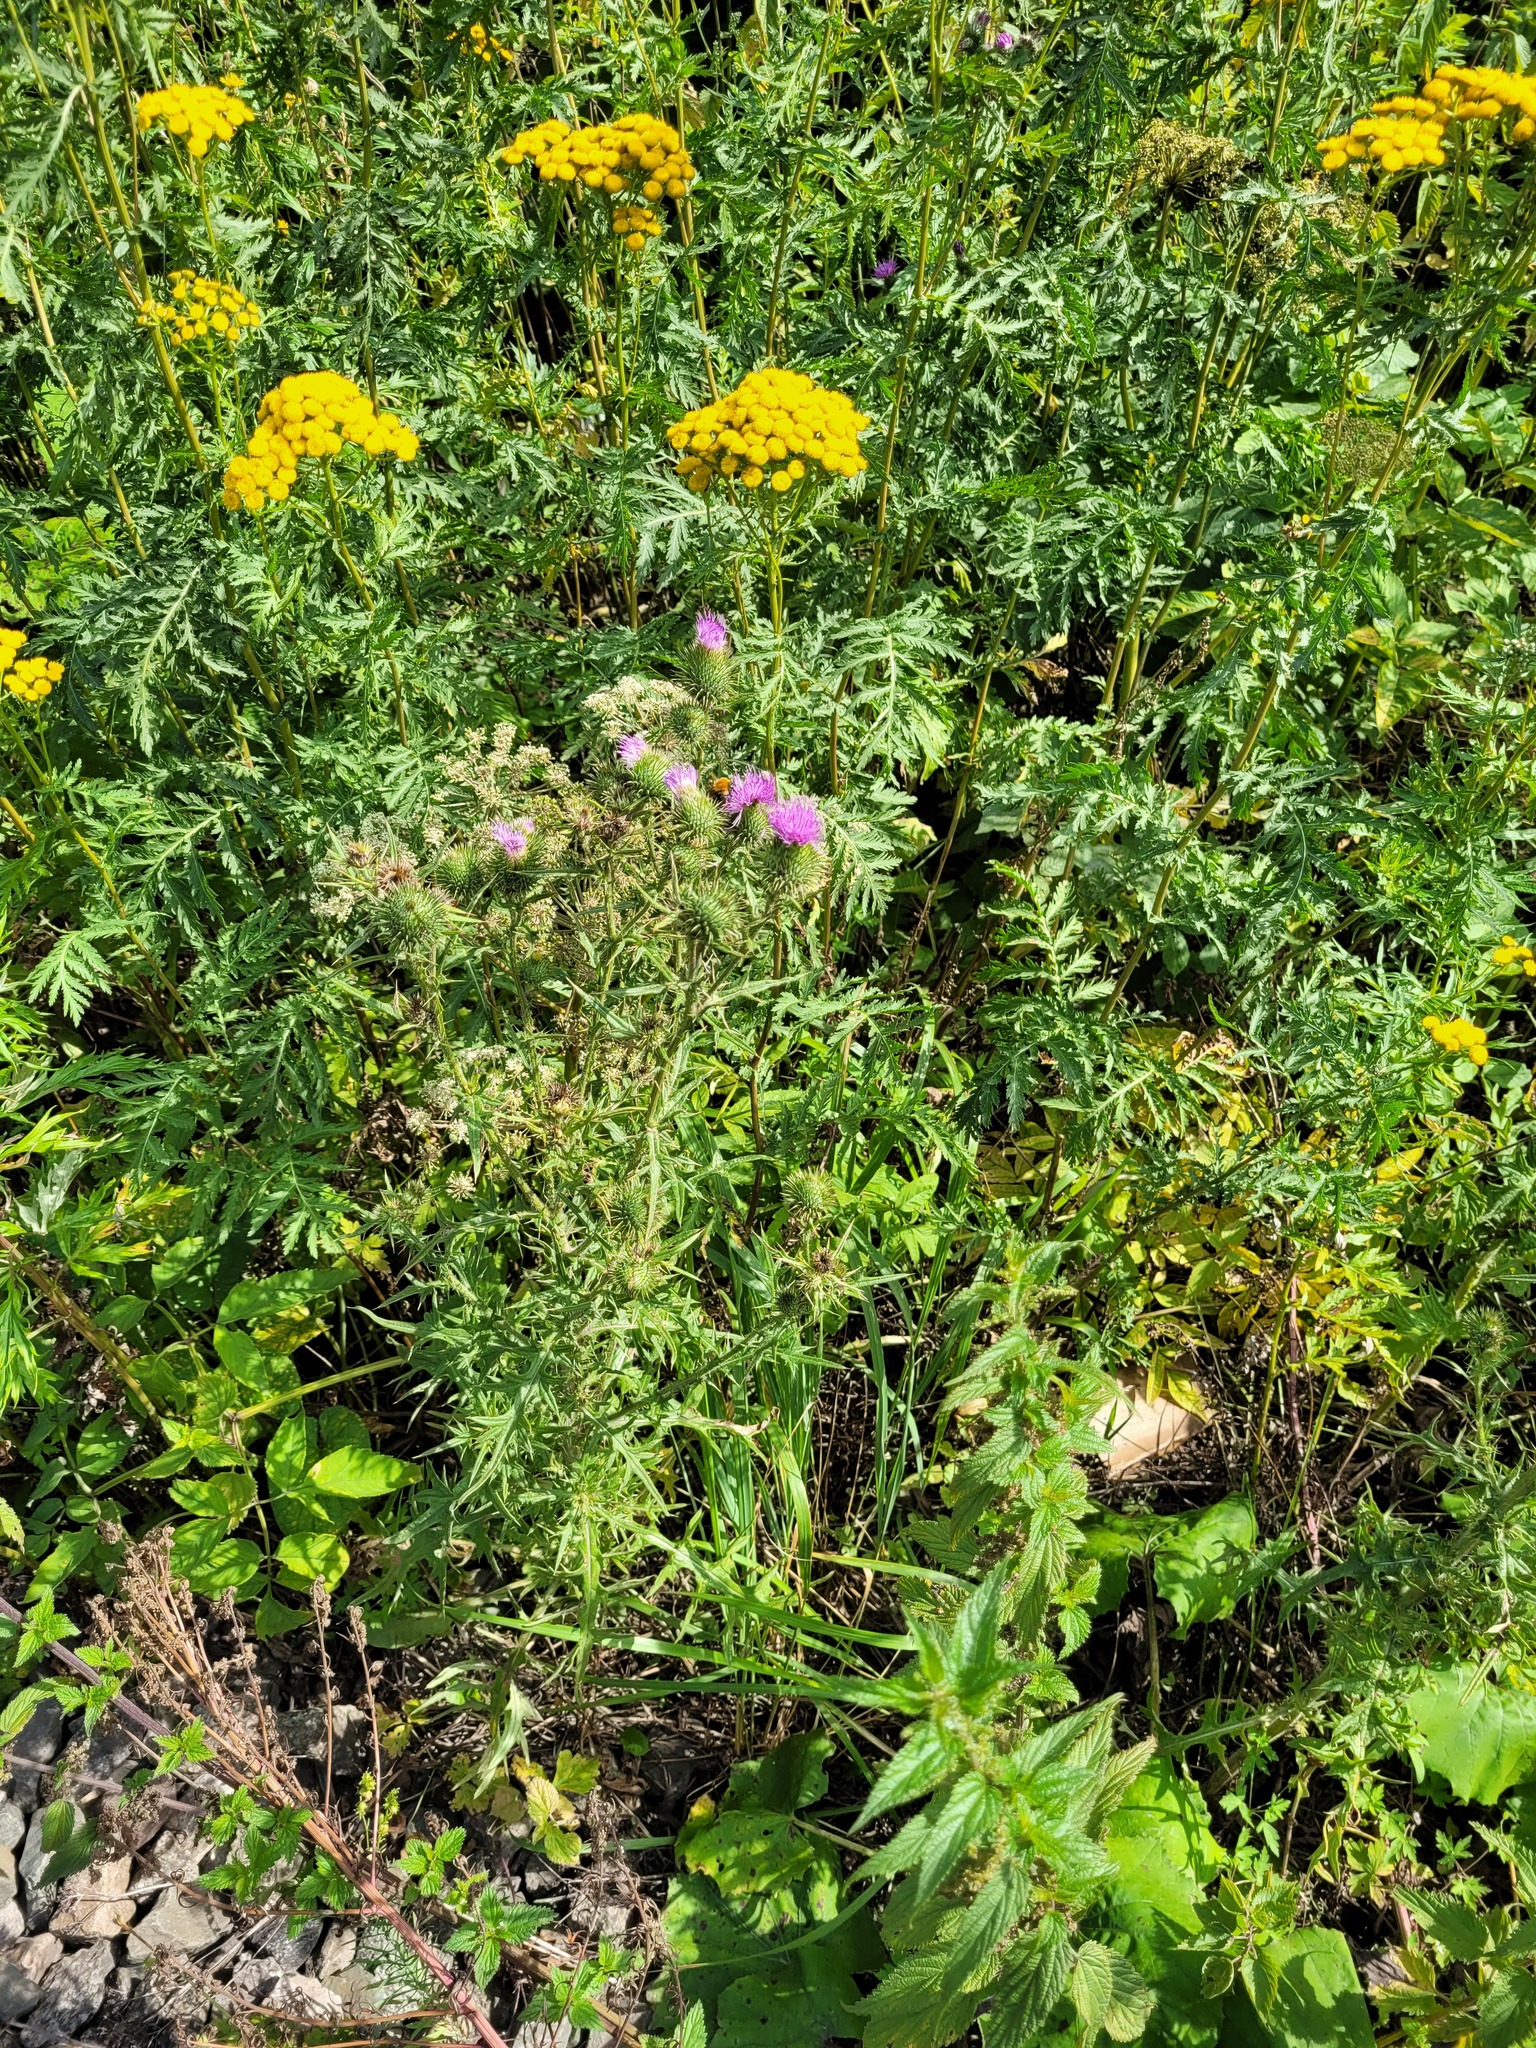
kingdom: Plantae
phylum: Tracheophyta
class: Magnoliopsida
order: Asterales
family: Asteraceae
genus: Cirsium
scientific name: Cirsium vulgare
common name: Bull thistle
